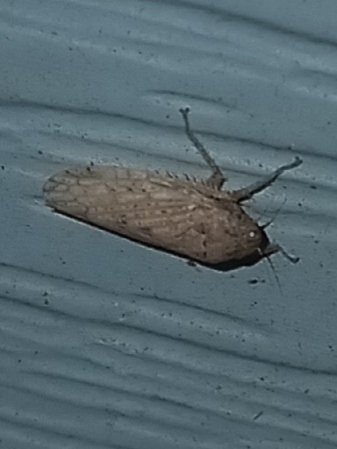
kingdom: Animalia
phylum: Arthropoda
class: Insecta
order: Hemiptera
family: Cicadellidae
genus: Curtara
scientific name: Curtara insularis
